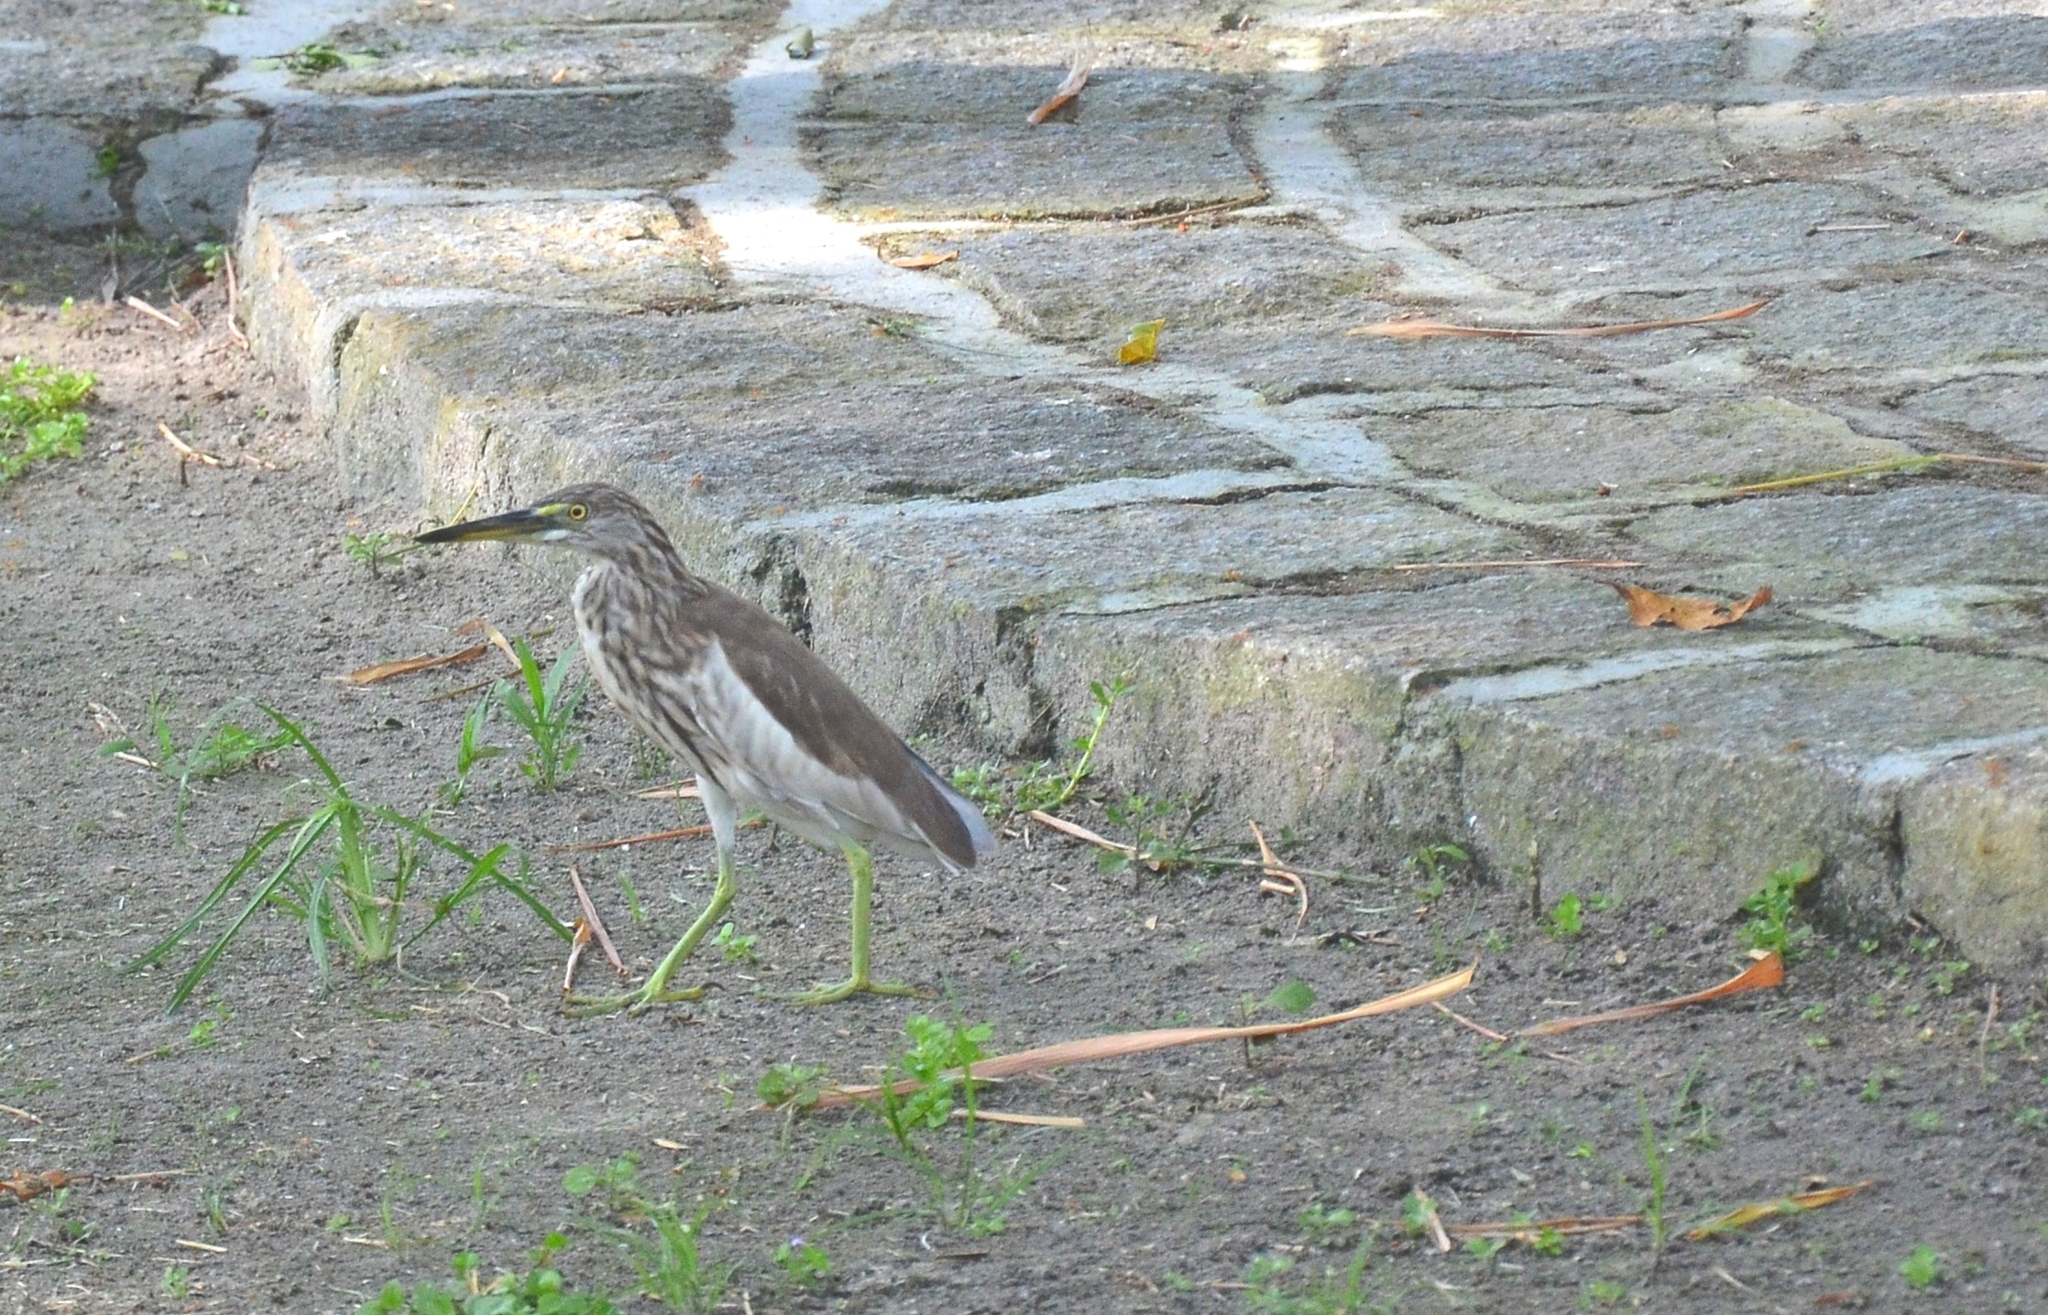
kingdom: Animalia
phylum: Chordata
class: Aves
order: Pelecaniformes
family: Ardeidae
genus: Ardeola
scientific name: Ardeola grayii
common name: Indian pond heron
